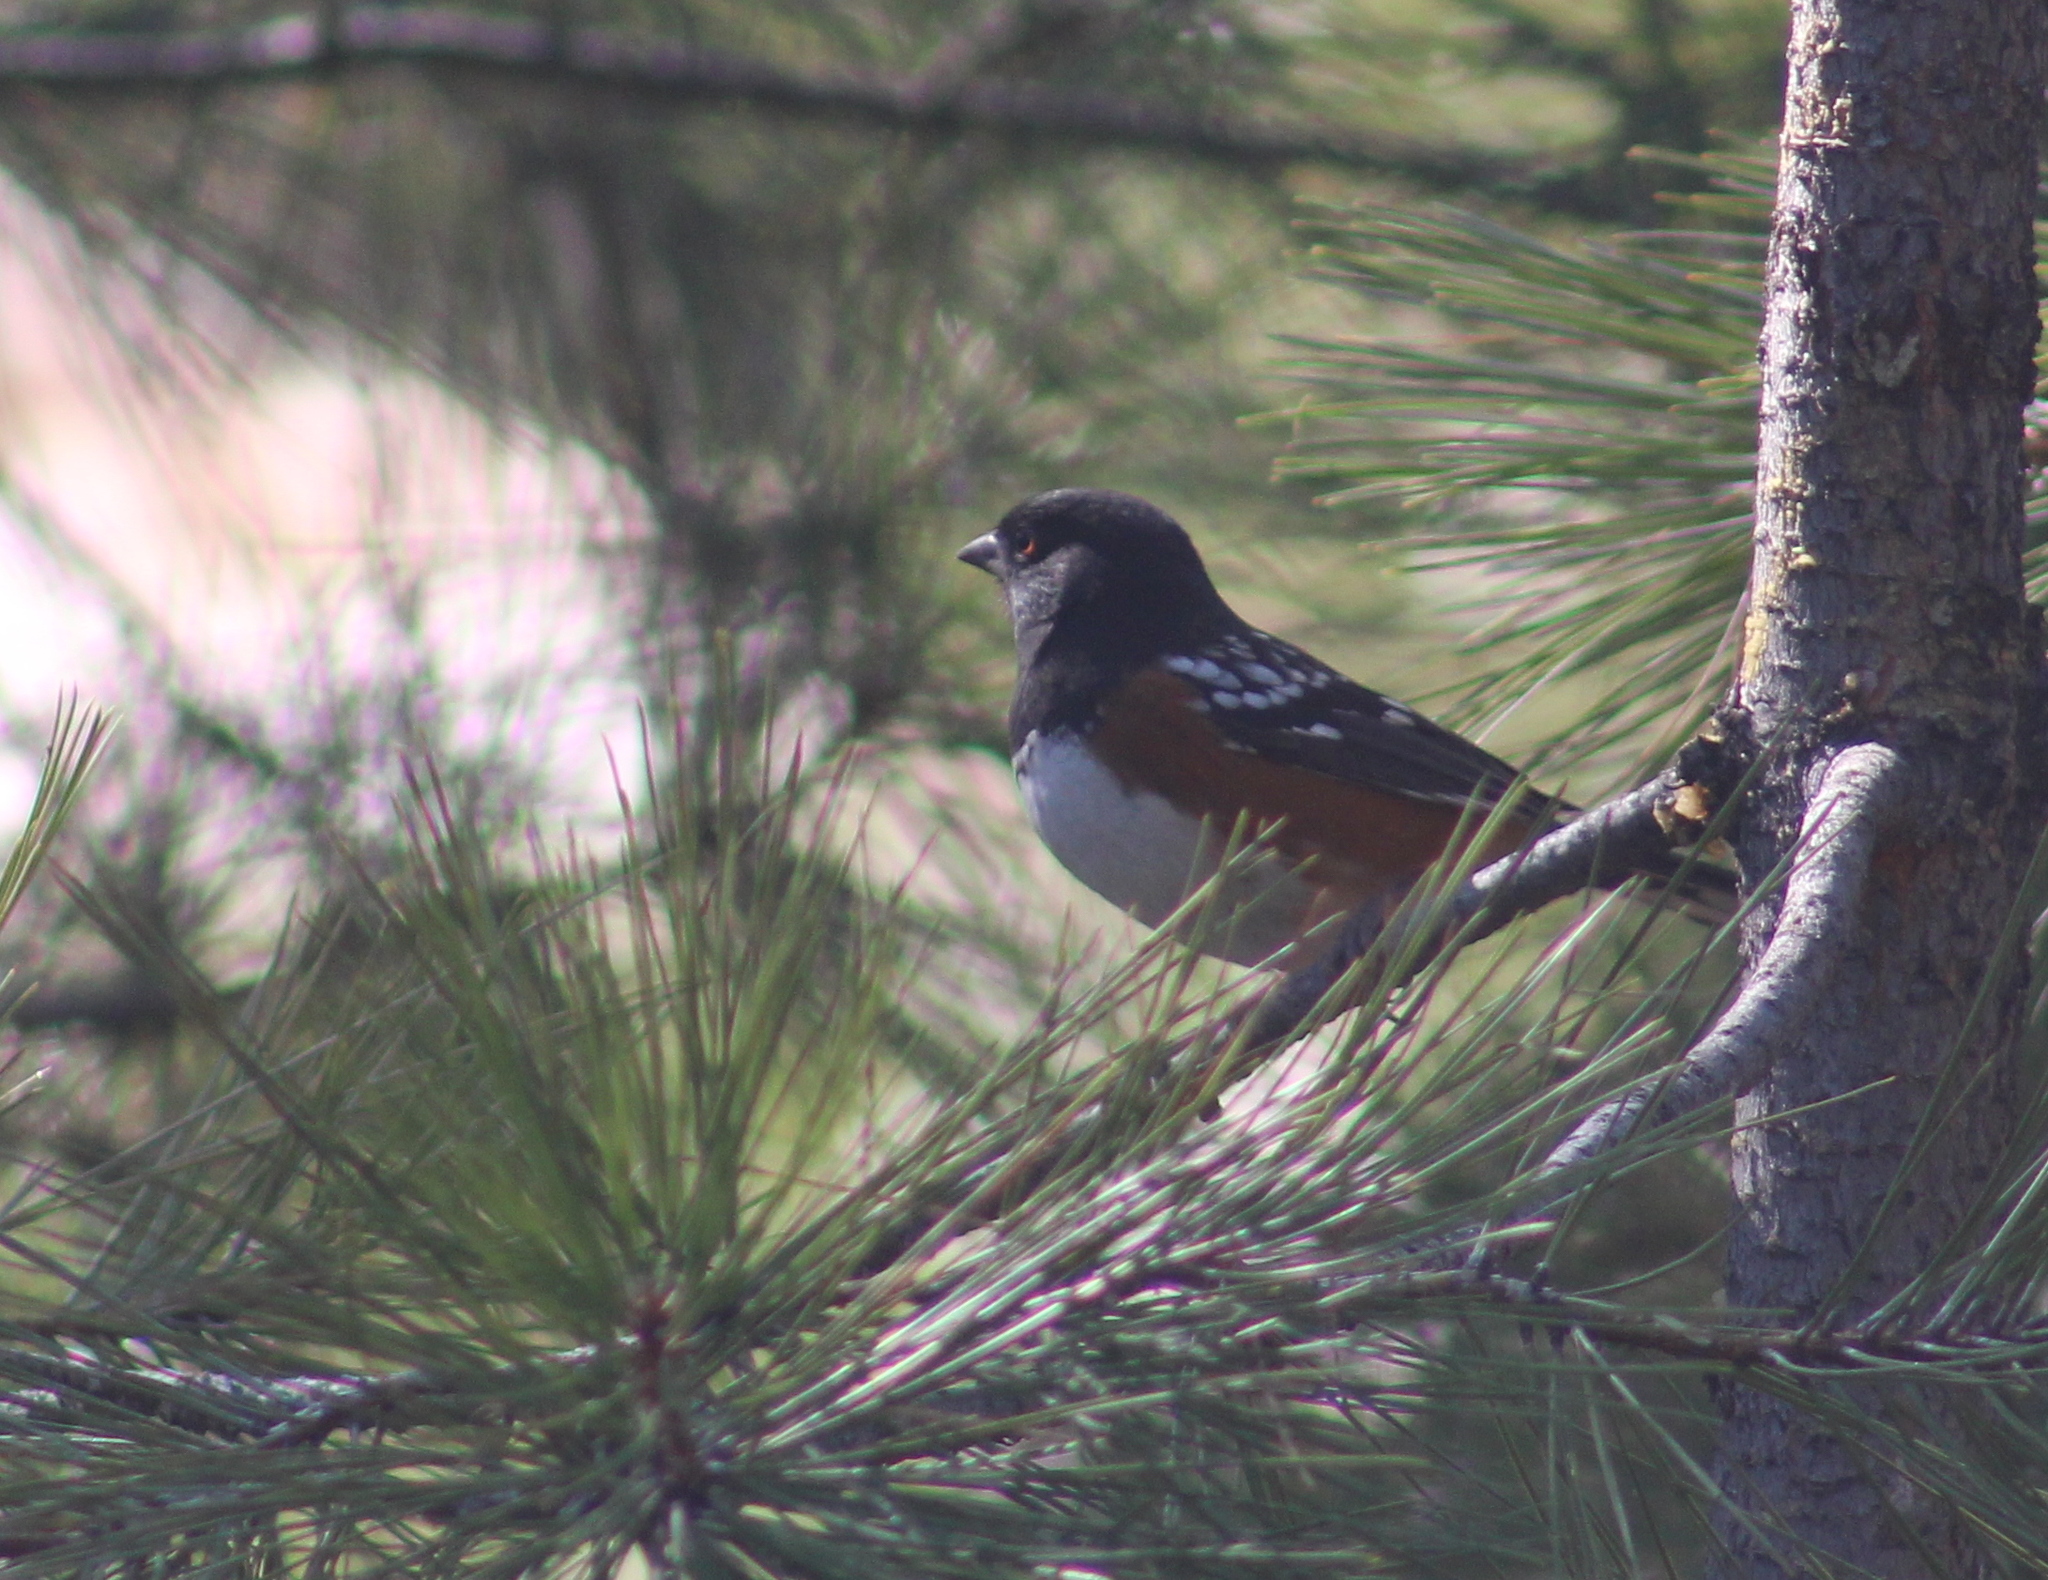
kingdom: Animalia
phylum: Chordata
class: Aves
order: Passeriformes
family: Passerellidae
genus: Pipilo
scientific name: Pipilo maculatus
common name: Spotted towhee
